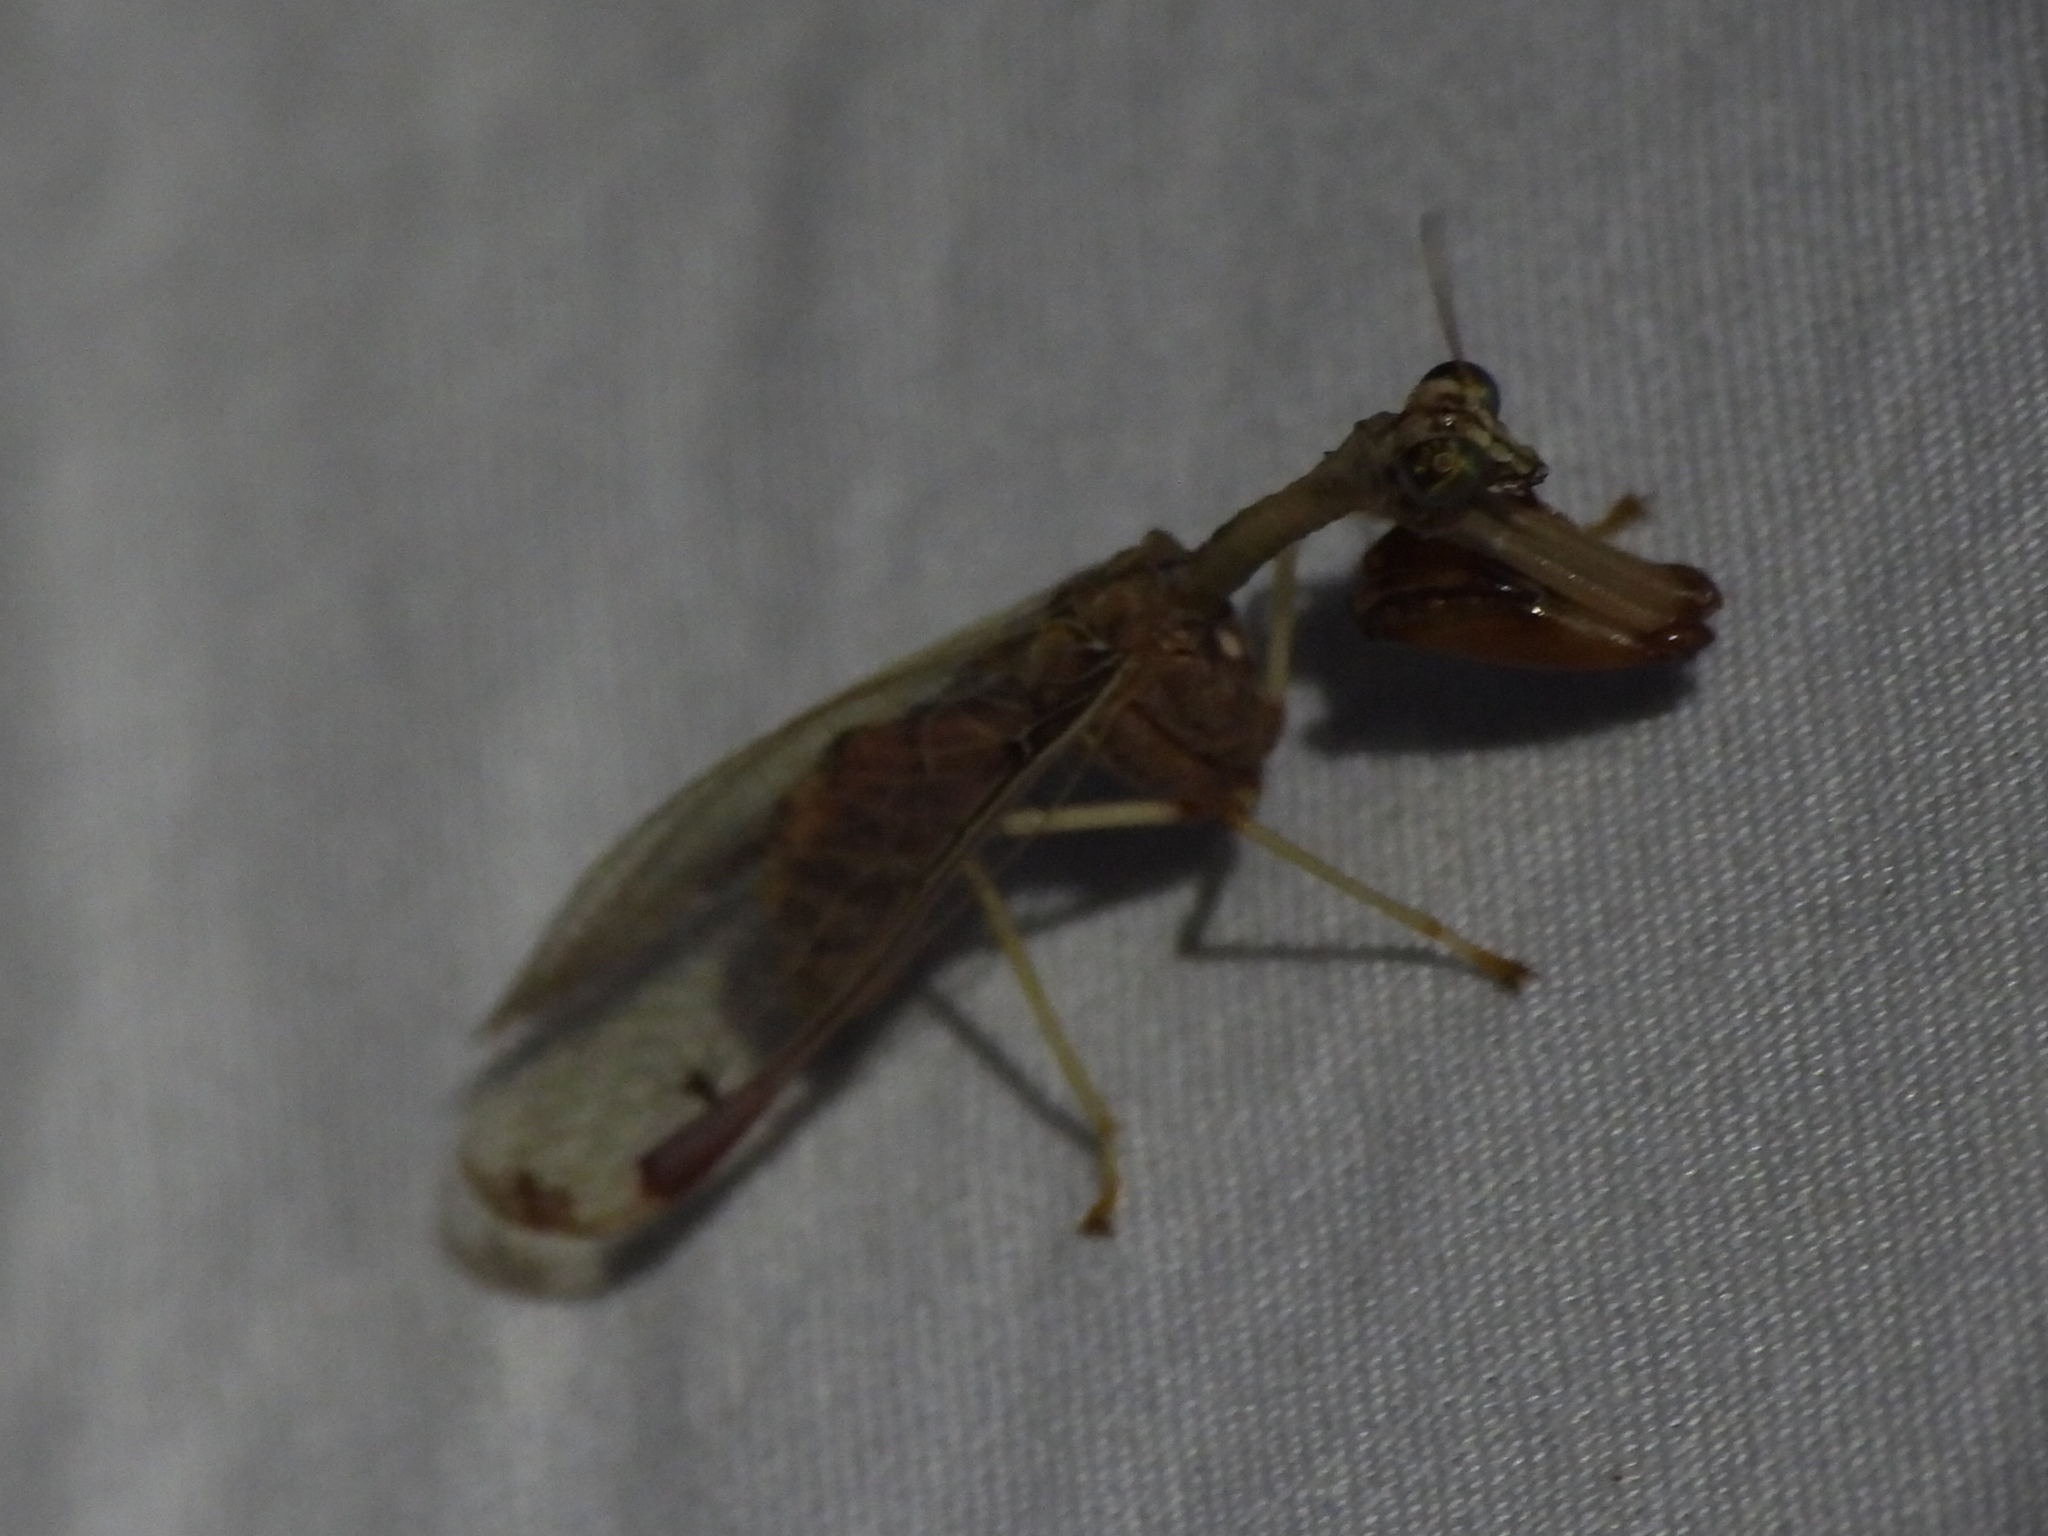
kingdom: Animalia
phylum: Arthropoda
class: Insecta
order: Neuroptera
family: Mantispidae
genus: Dicromantispa
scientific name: Dicromantispa interrupta
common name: Four-spotted mantidfly
